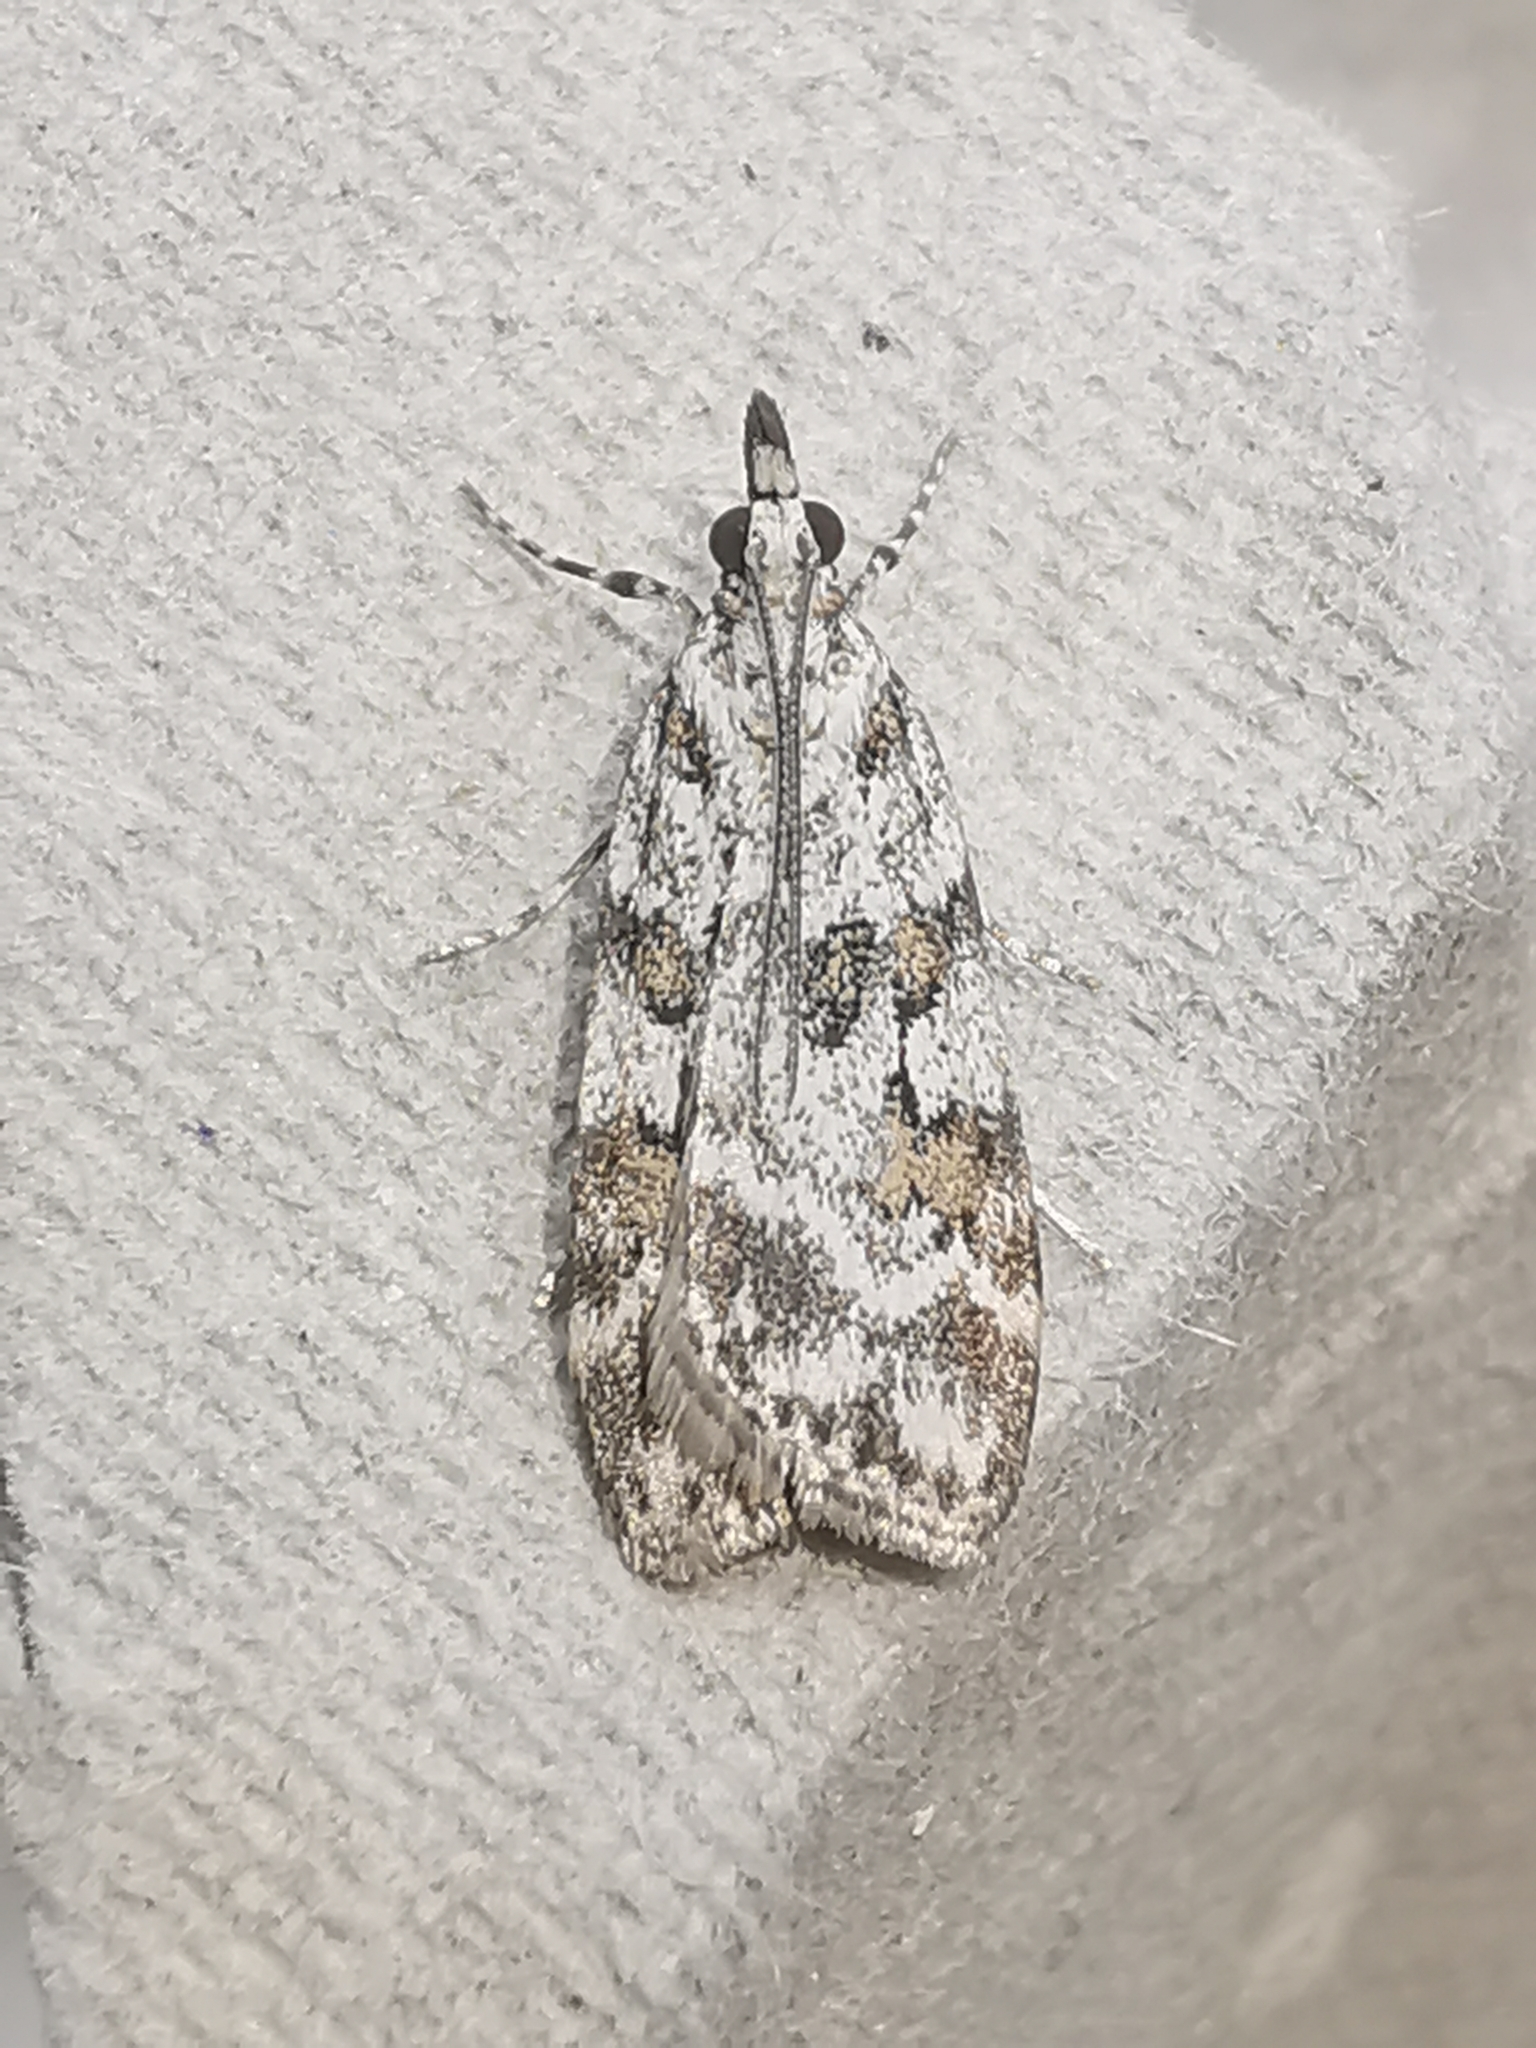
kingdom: Animalia
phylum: Arthropoda
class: Insecta
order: Lepidoptera
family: Crambidae
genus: Scoparia
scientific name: Scoparia pyralella
